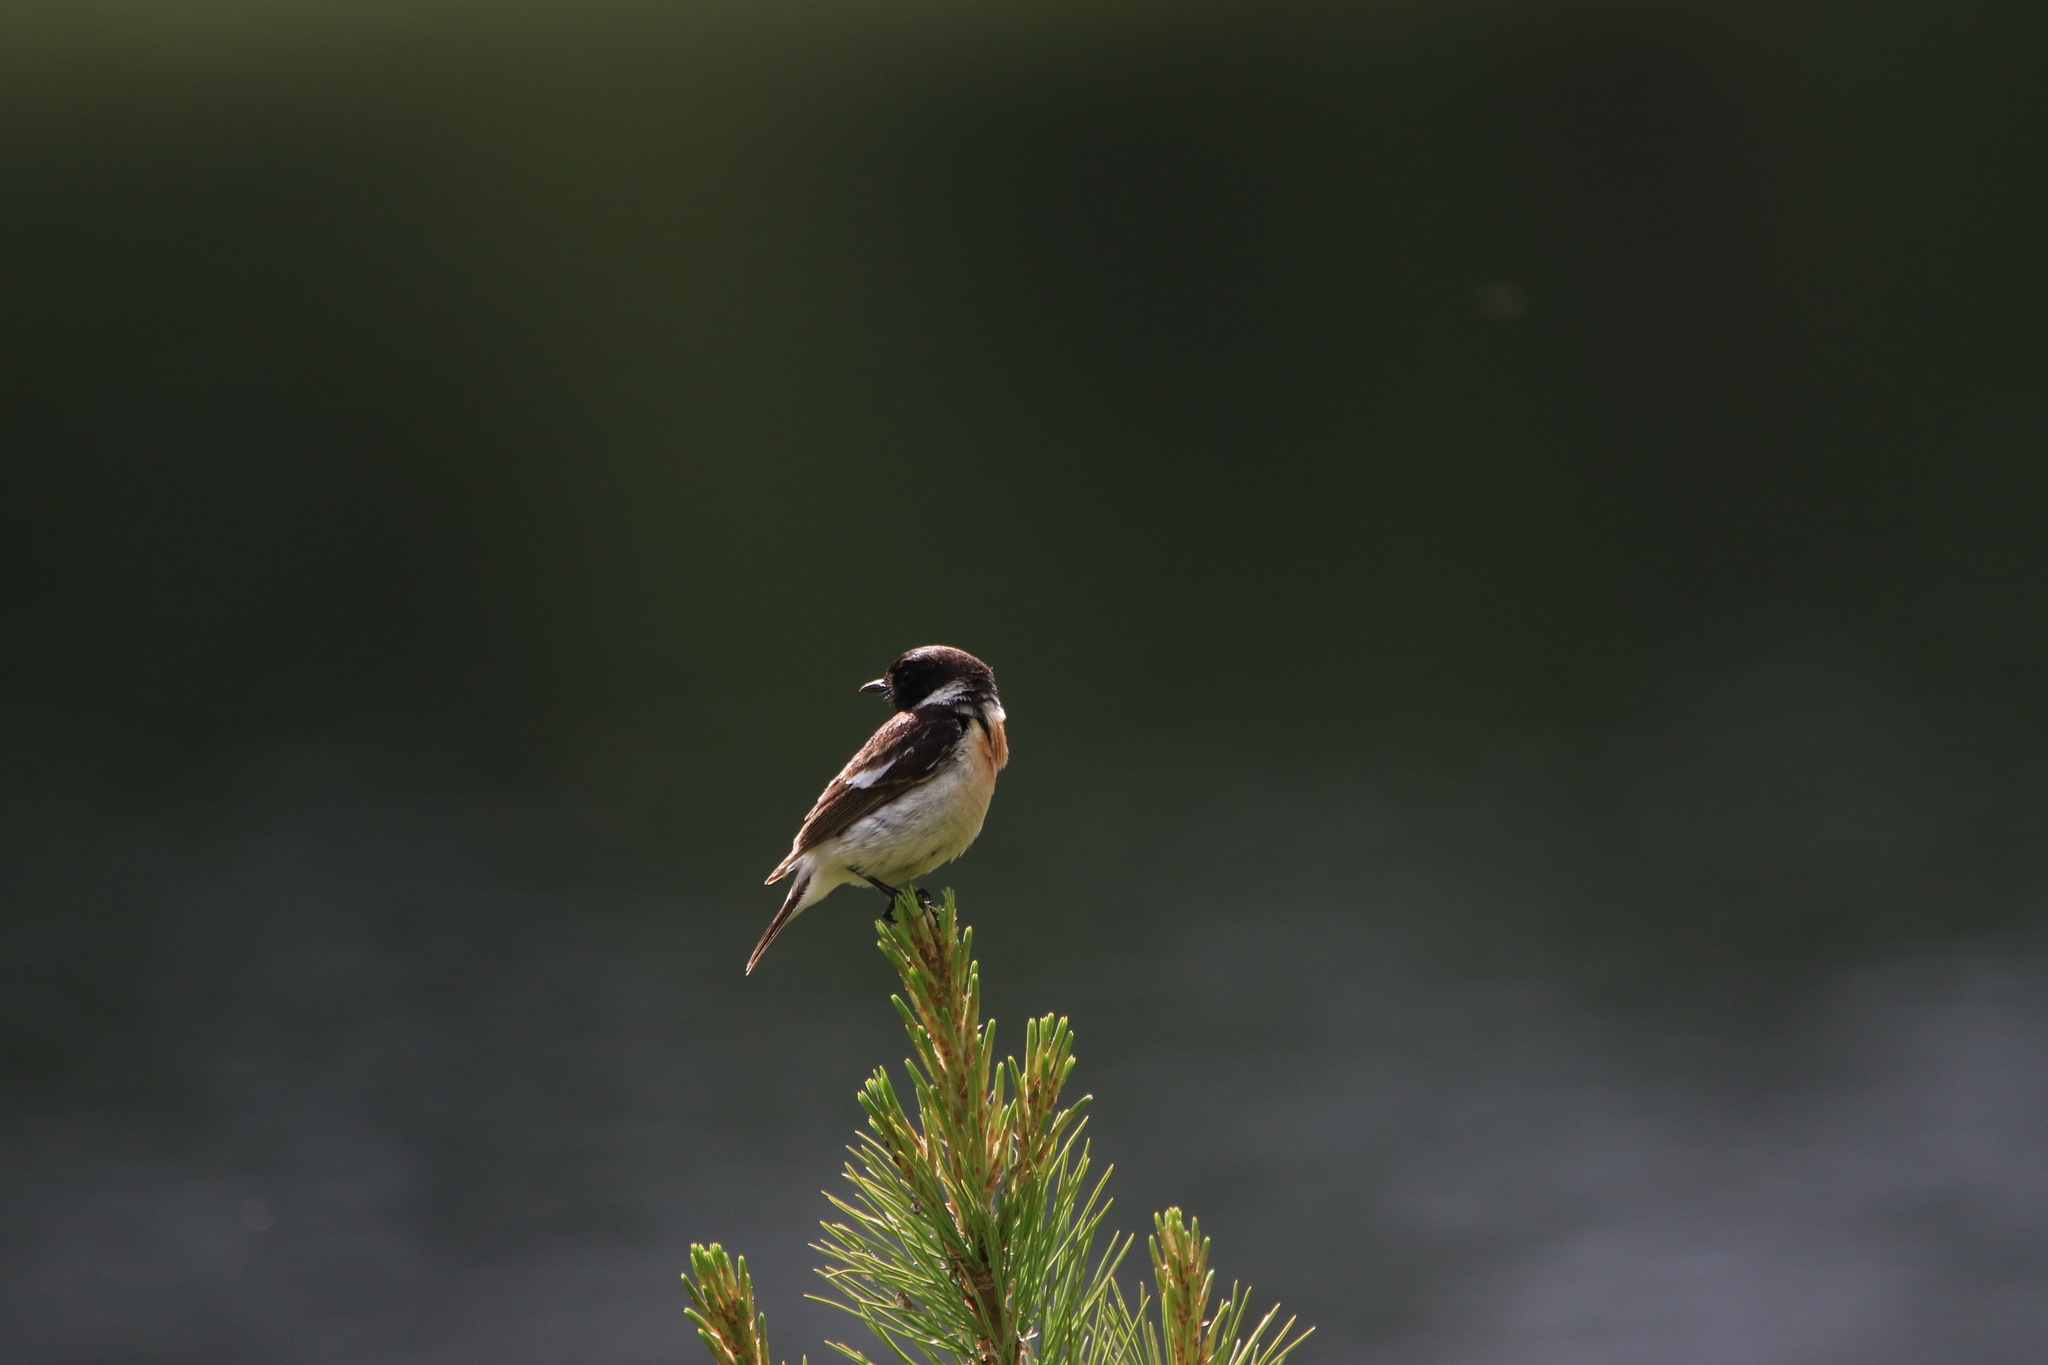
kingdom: Animalia
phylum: Chordata
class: Aves
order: Passeriformes
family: Muscicapidae
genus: Saxicola
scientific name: Saxicola maurus
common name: Siberian stonechat
